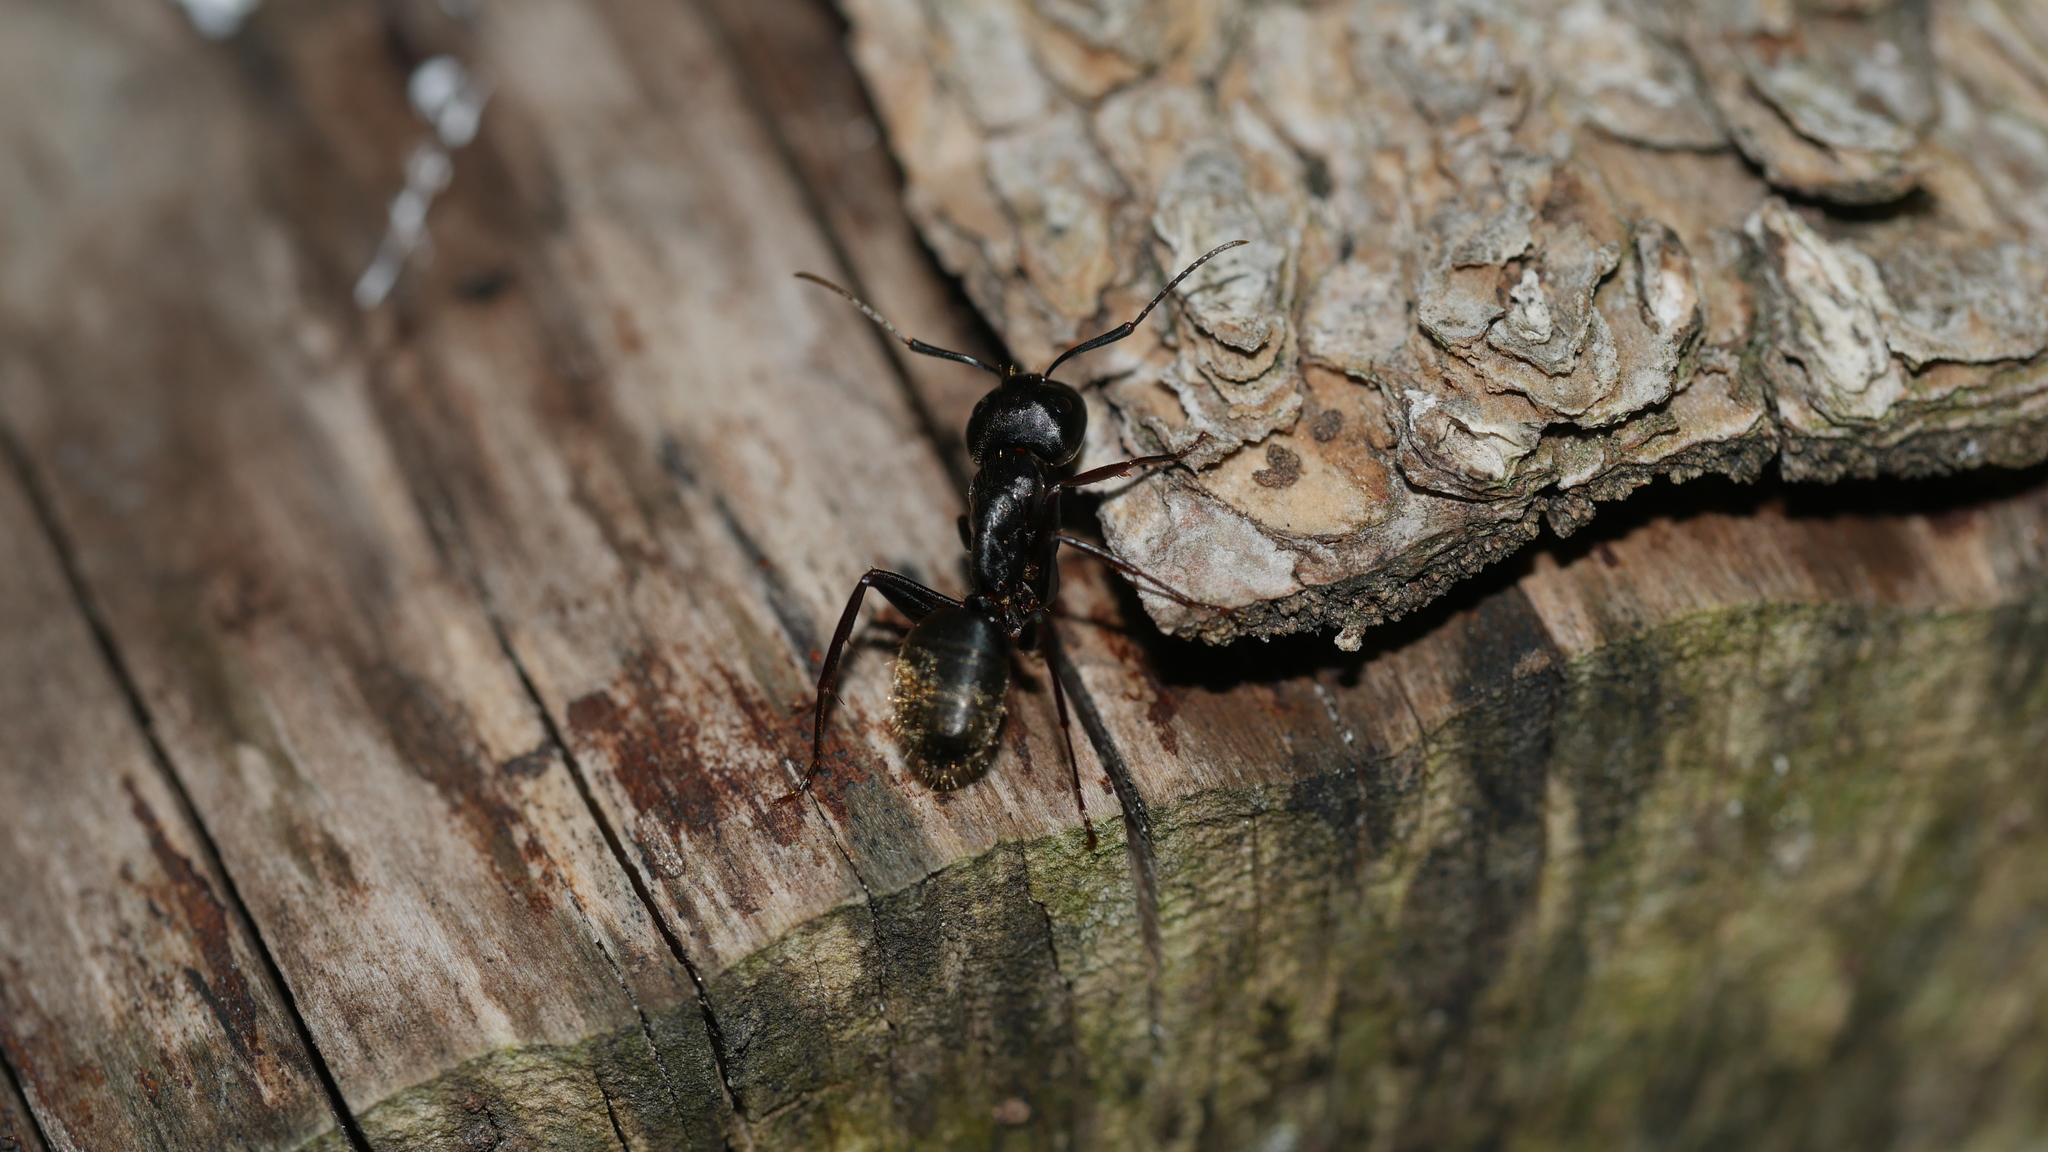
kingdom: Animalia
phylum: Arthropoda
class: Insecta
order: Hymenoptera
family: Formicidae
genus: Camponotus
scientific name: Camponotus pennsylvanicus
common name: Black carpenter ant
